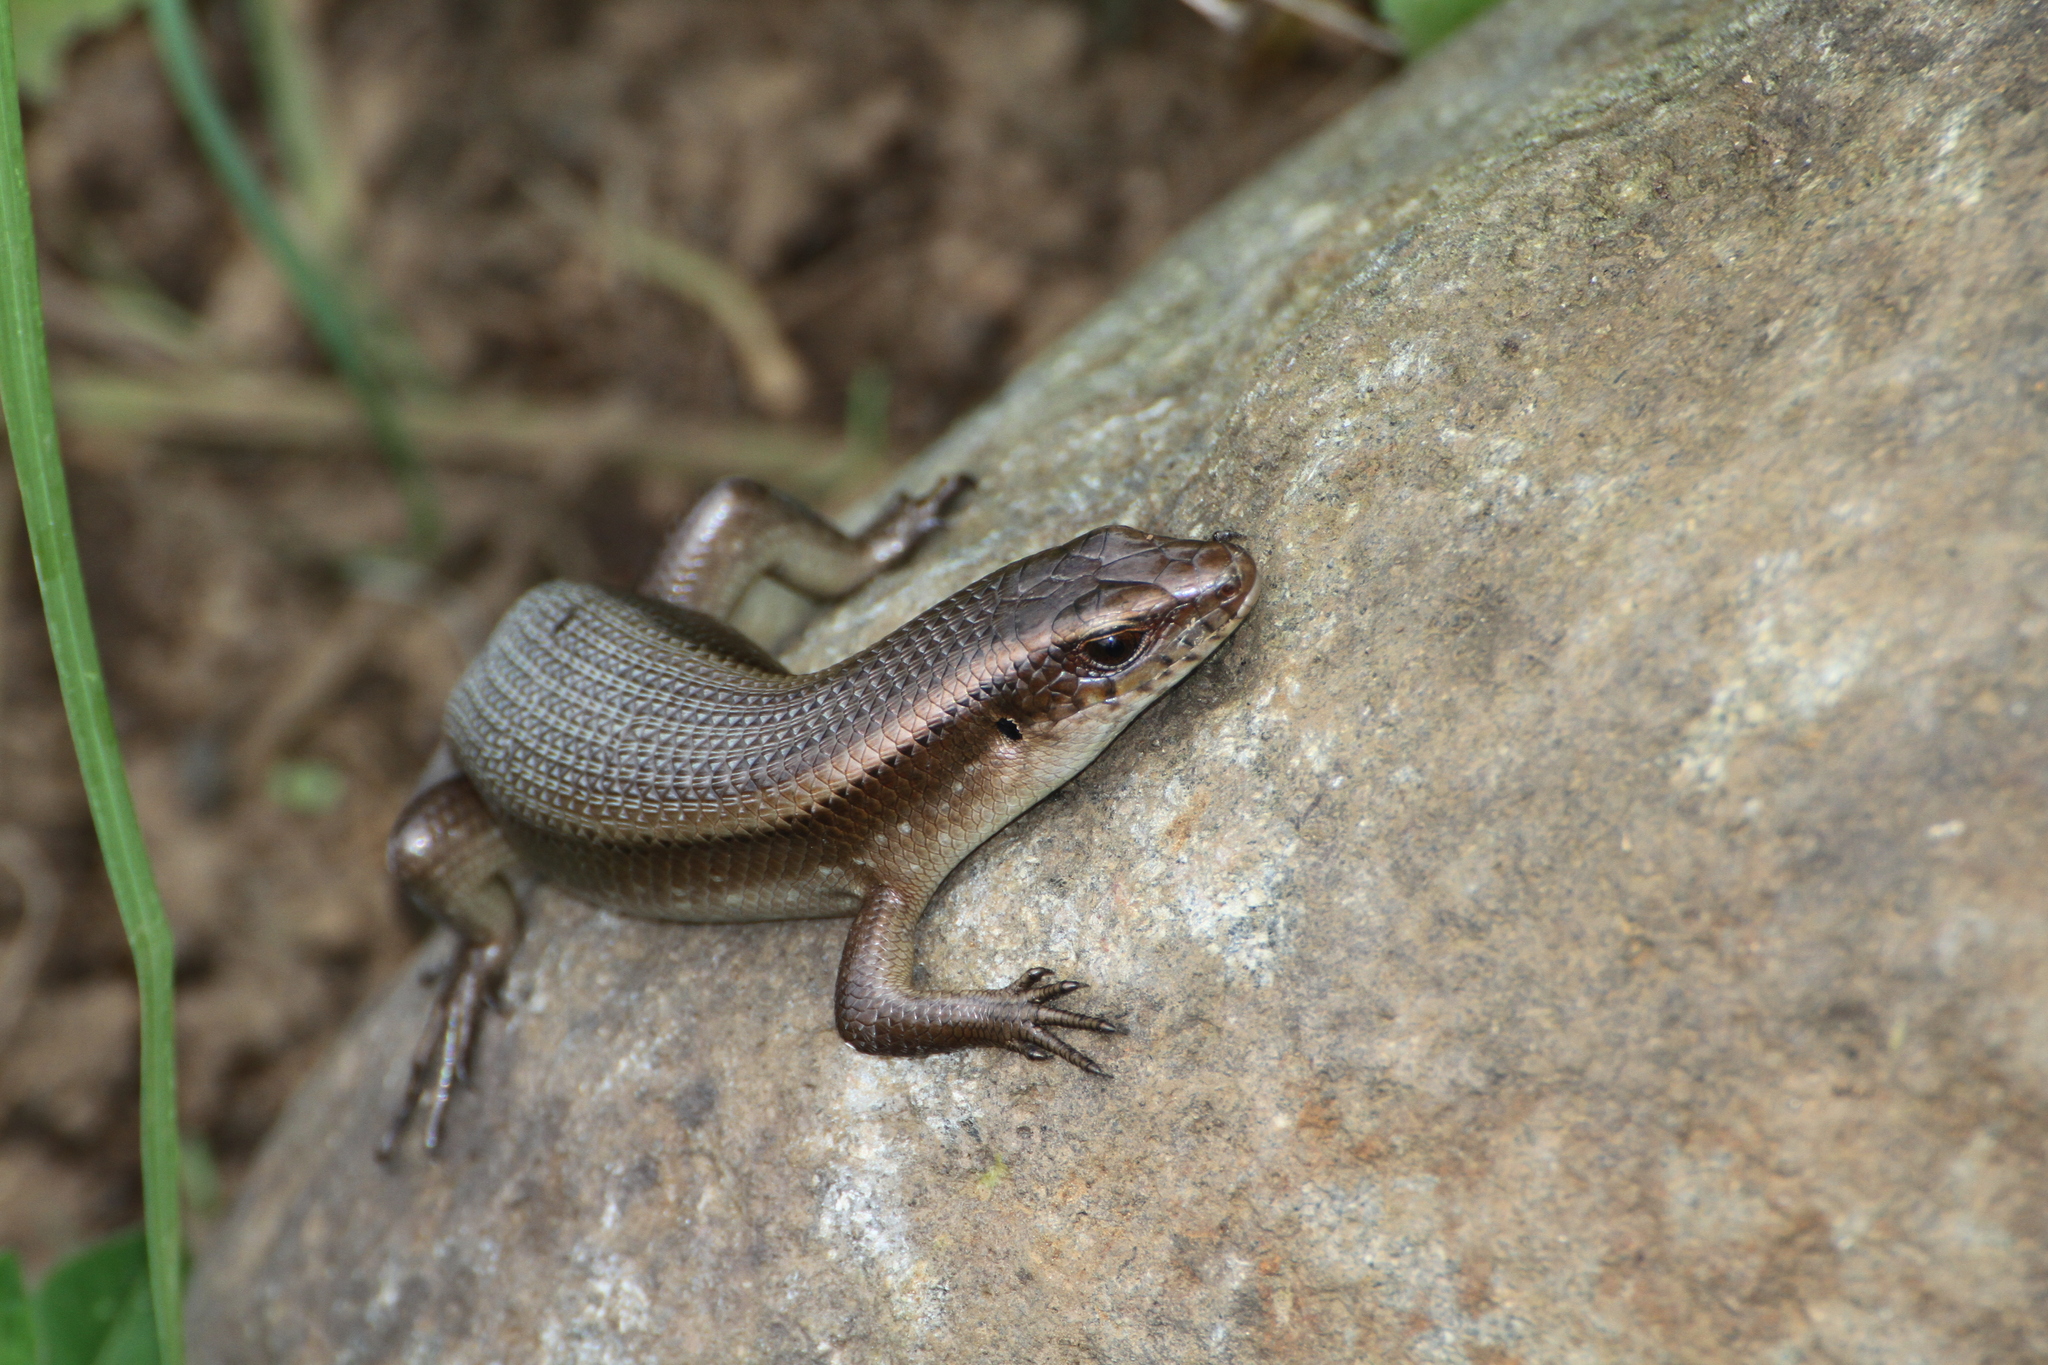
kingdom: Animalia
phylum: Chordata
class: Squamata
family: Scincidae
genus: Eutropis
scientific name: Eutropis multifasciata
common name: Common mabuya
